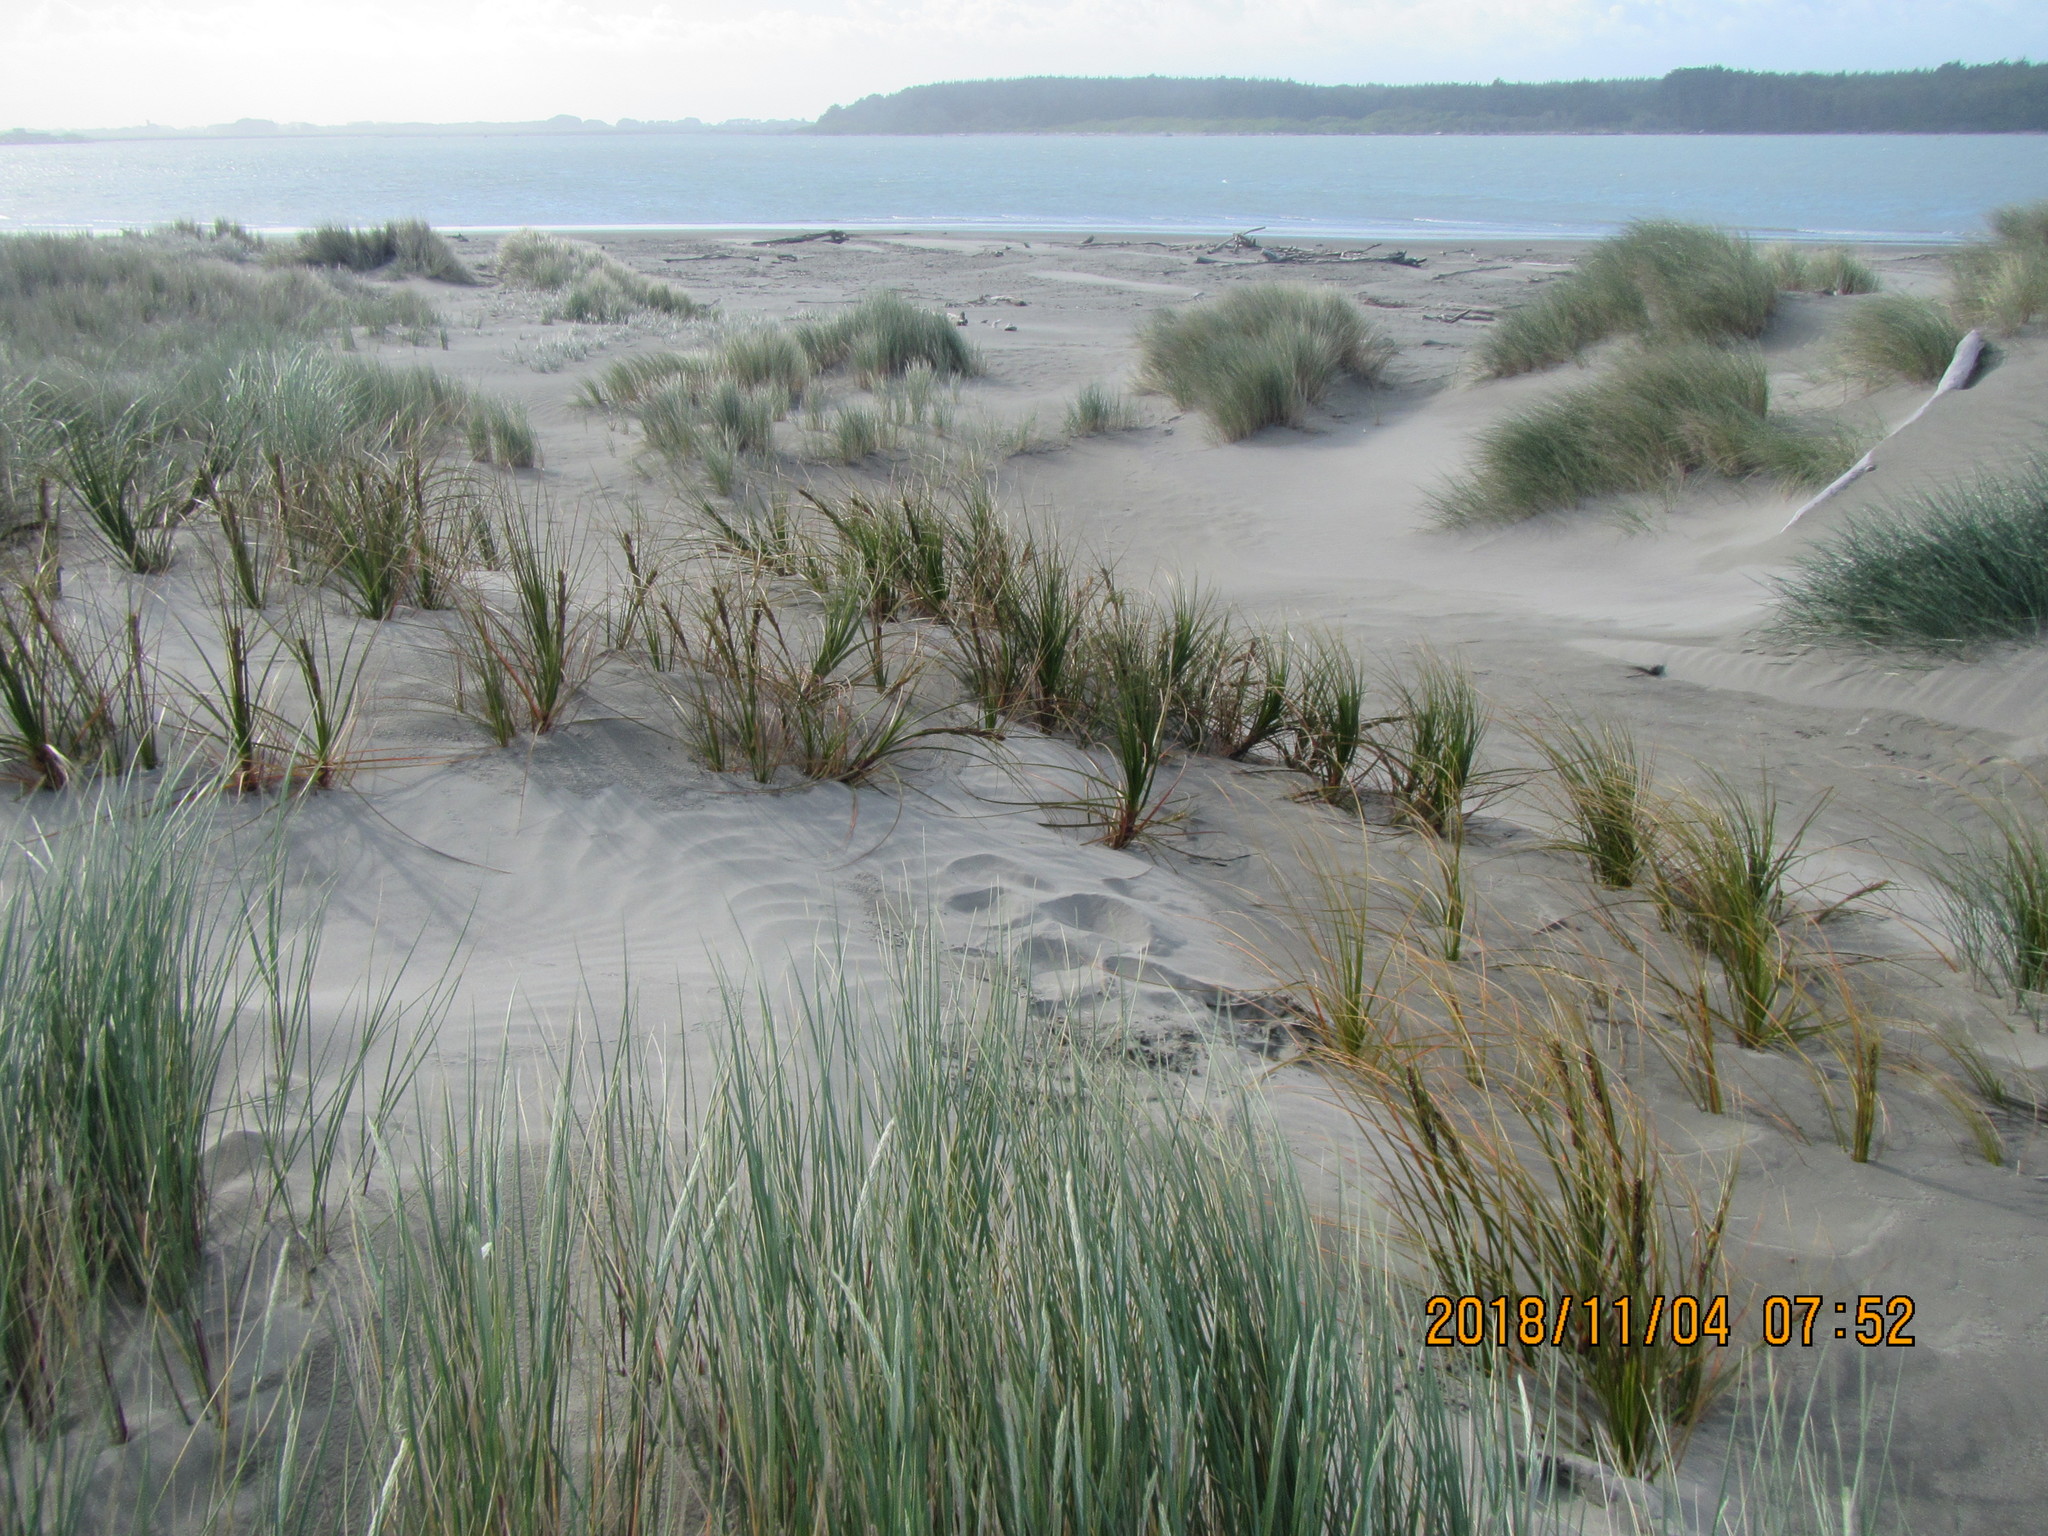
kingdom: Plantae
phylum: Tracheophyta
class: Liliopsida
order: Poales
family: Cyperaceae
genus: Ficinia
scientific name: Ficinia spiralis
